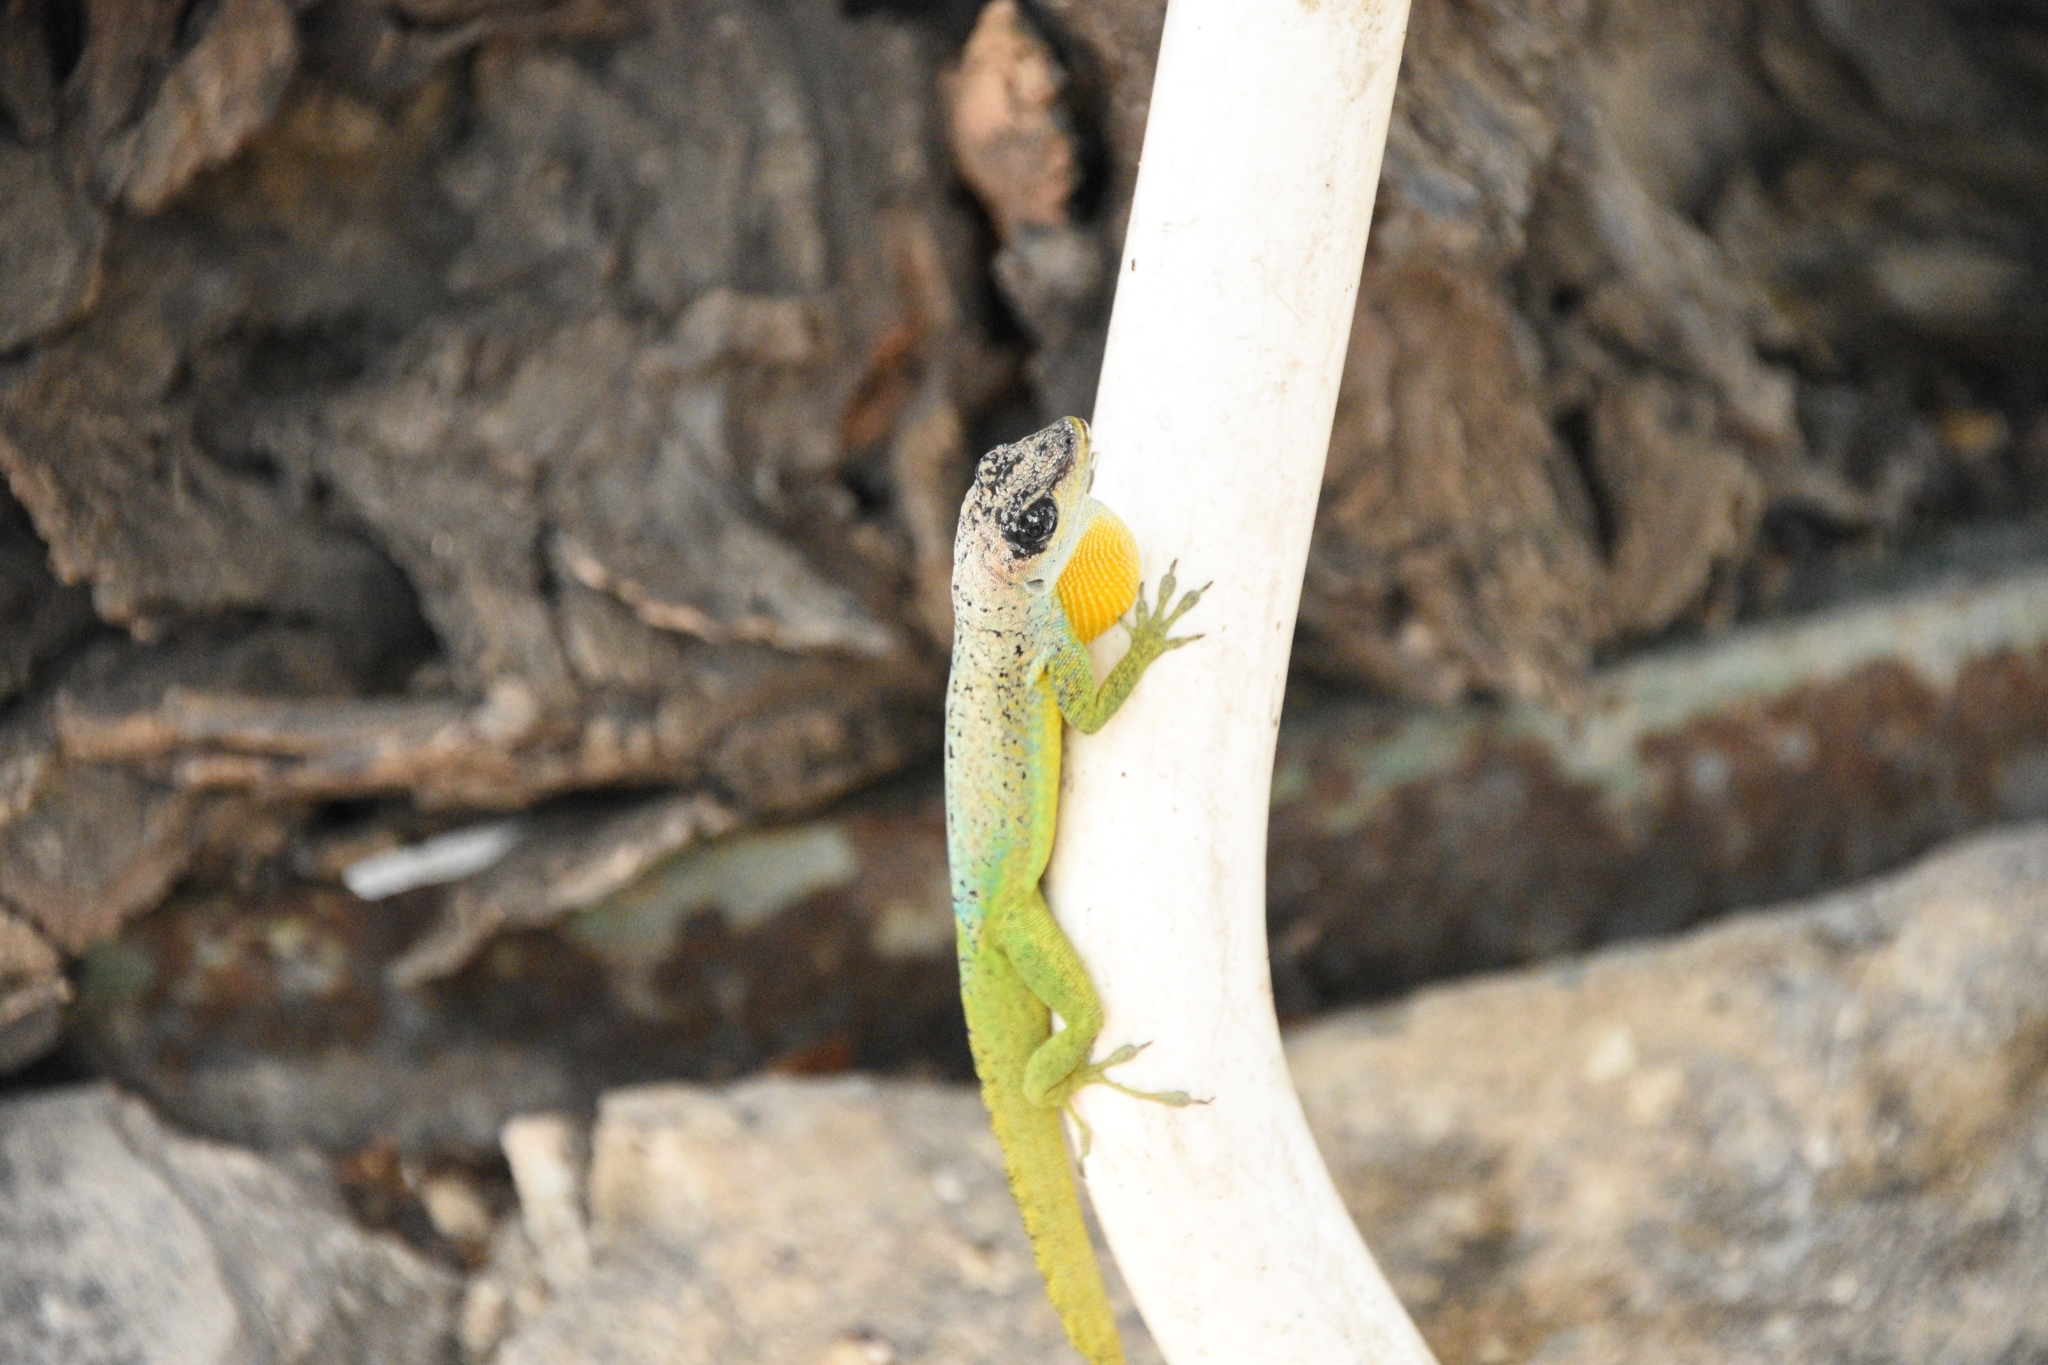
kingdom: Animalia
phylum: Chordata
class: Squamata
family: Dactyloidae
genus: Anolis
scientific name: Anolis extremus
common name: Barbados anole
